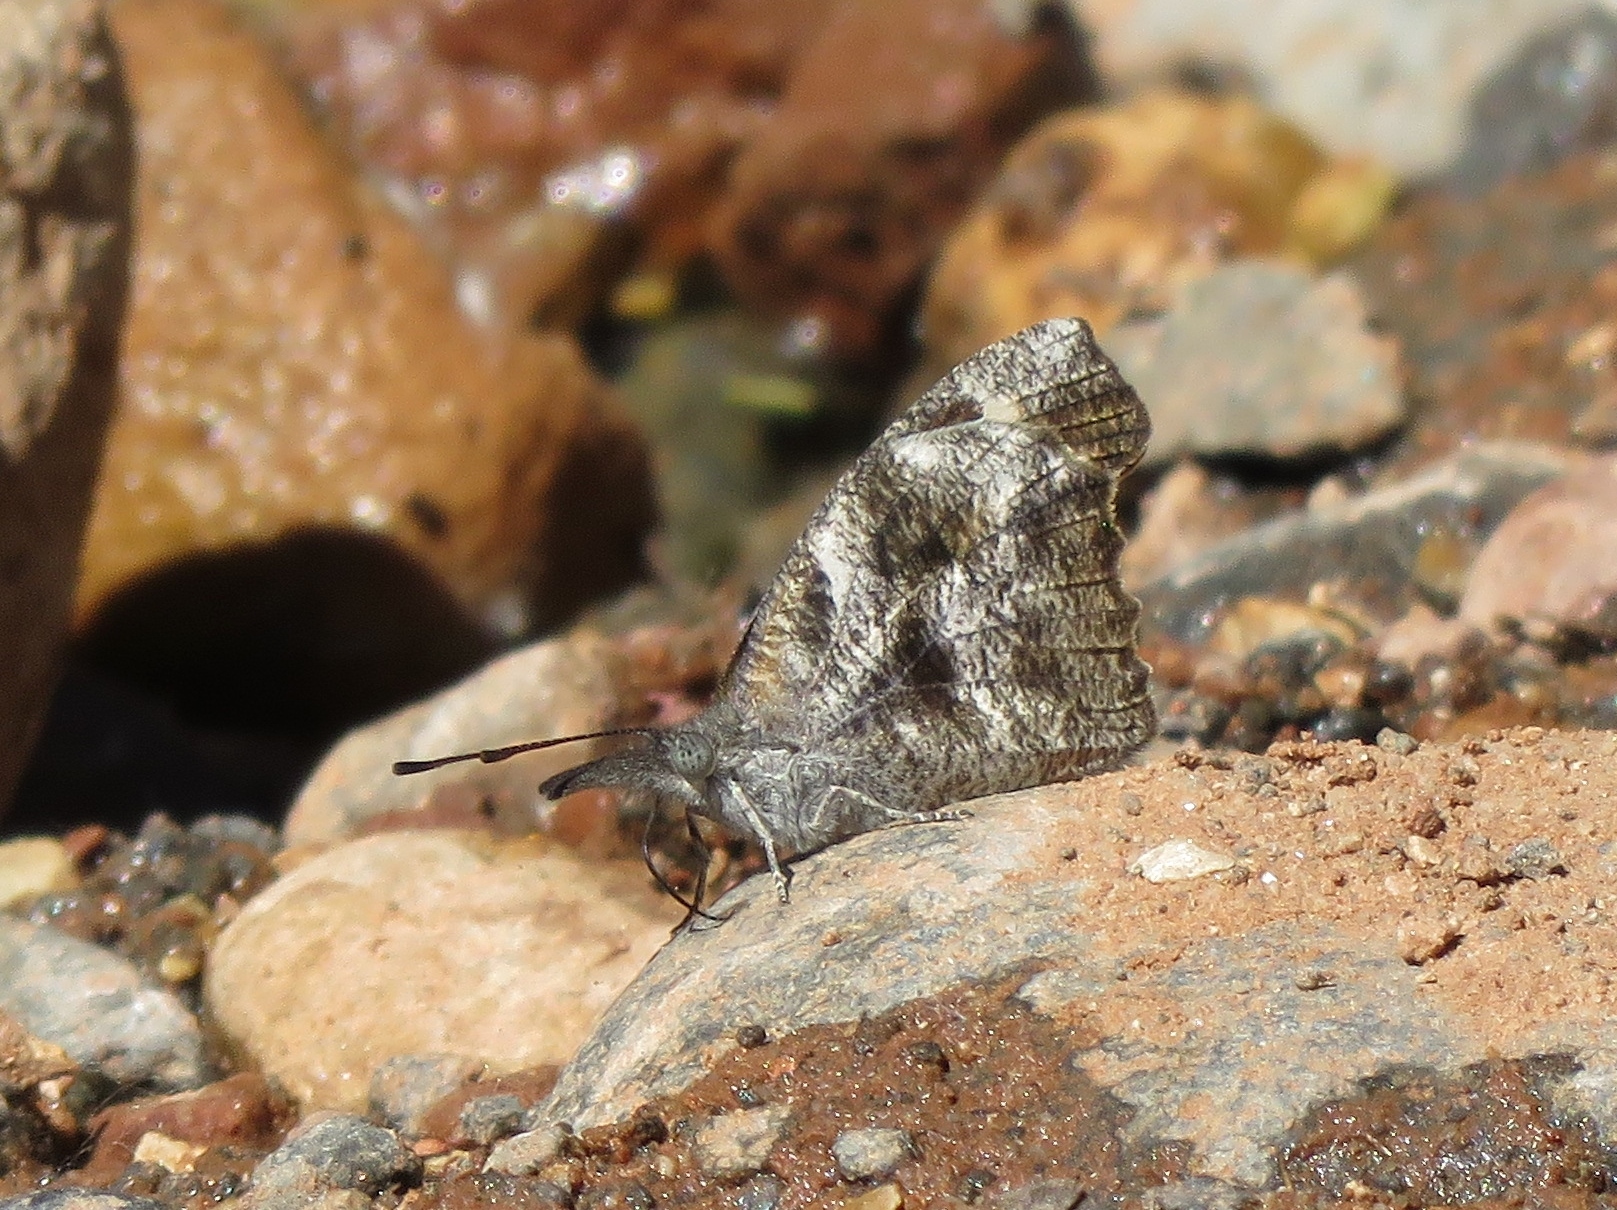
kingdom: Animalia
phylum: Arthropoda
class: Insecta
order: Lepidoptera
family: Nymphalidae
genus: Libytheana
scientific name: Libytheana carinenta
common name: American snout
